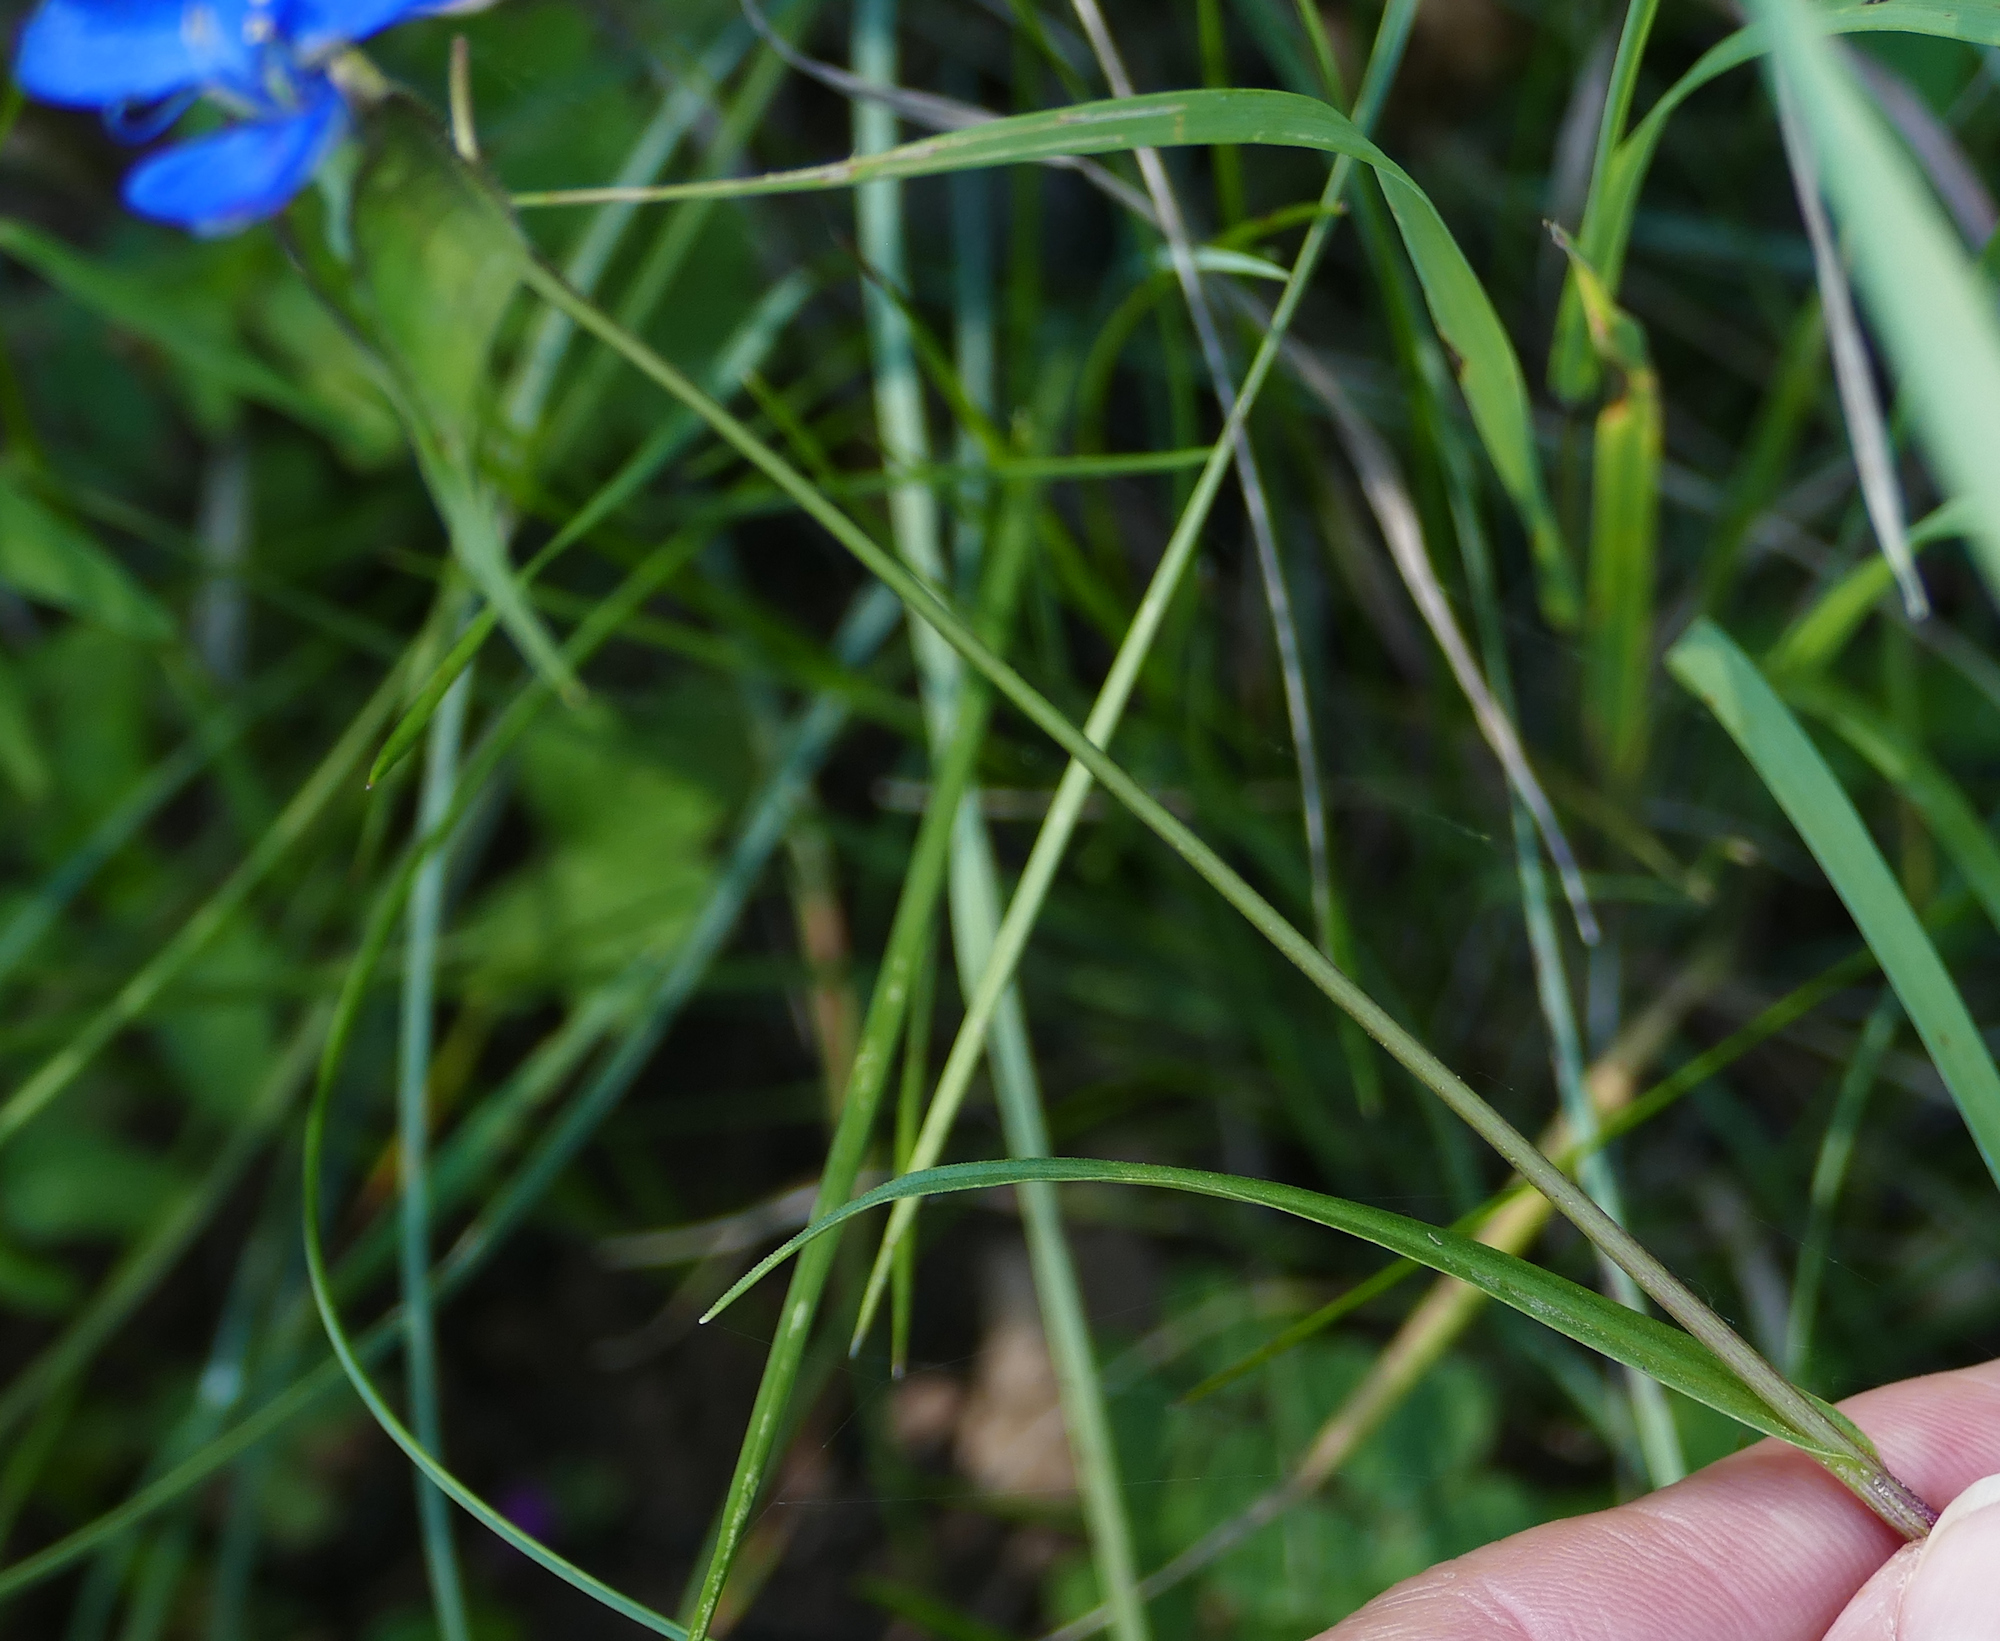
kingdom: Plantae
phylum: Tracheophyta
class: Liliopsida
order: Commelinales
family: Commelinaceae
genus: Commelina
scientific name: Commelina dianthifolia
